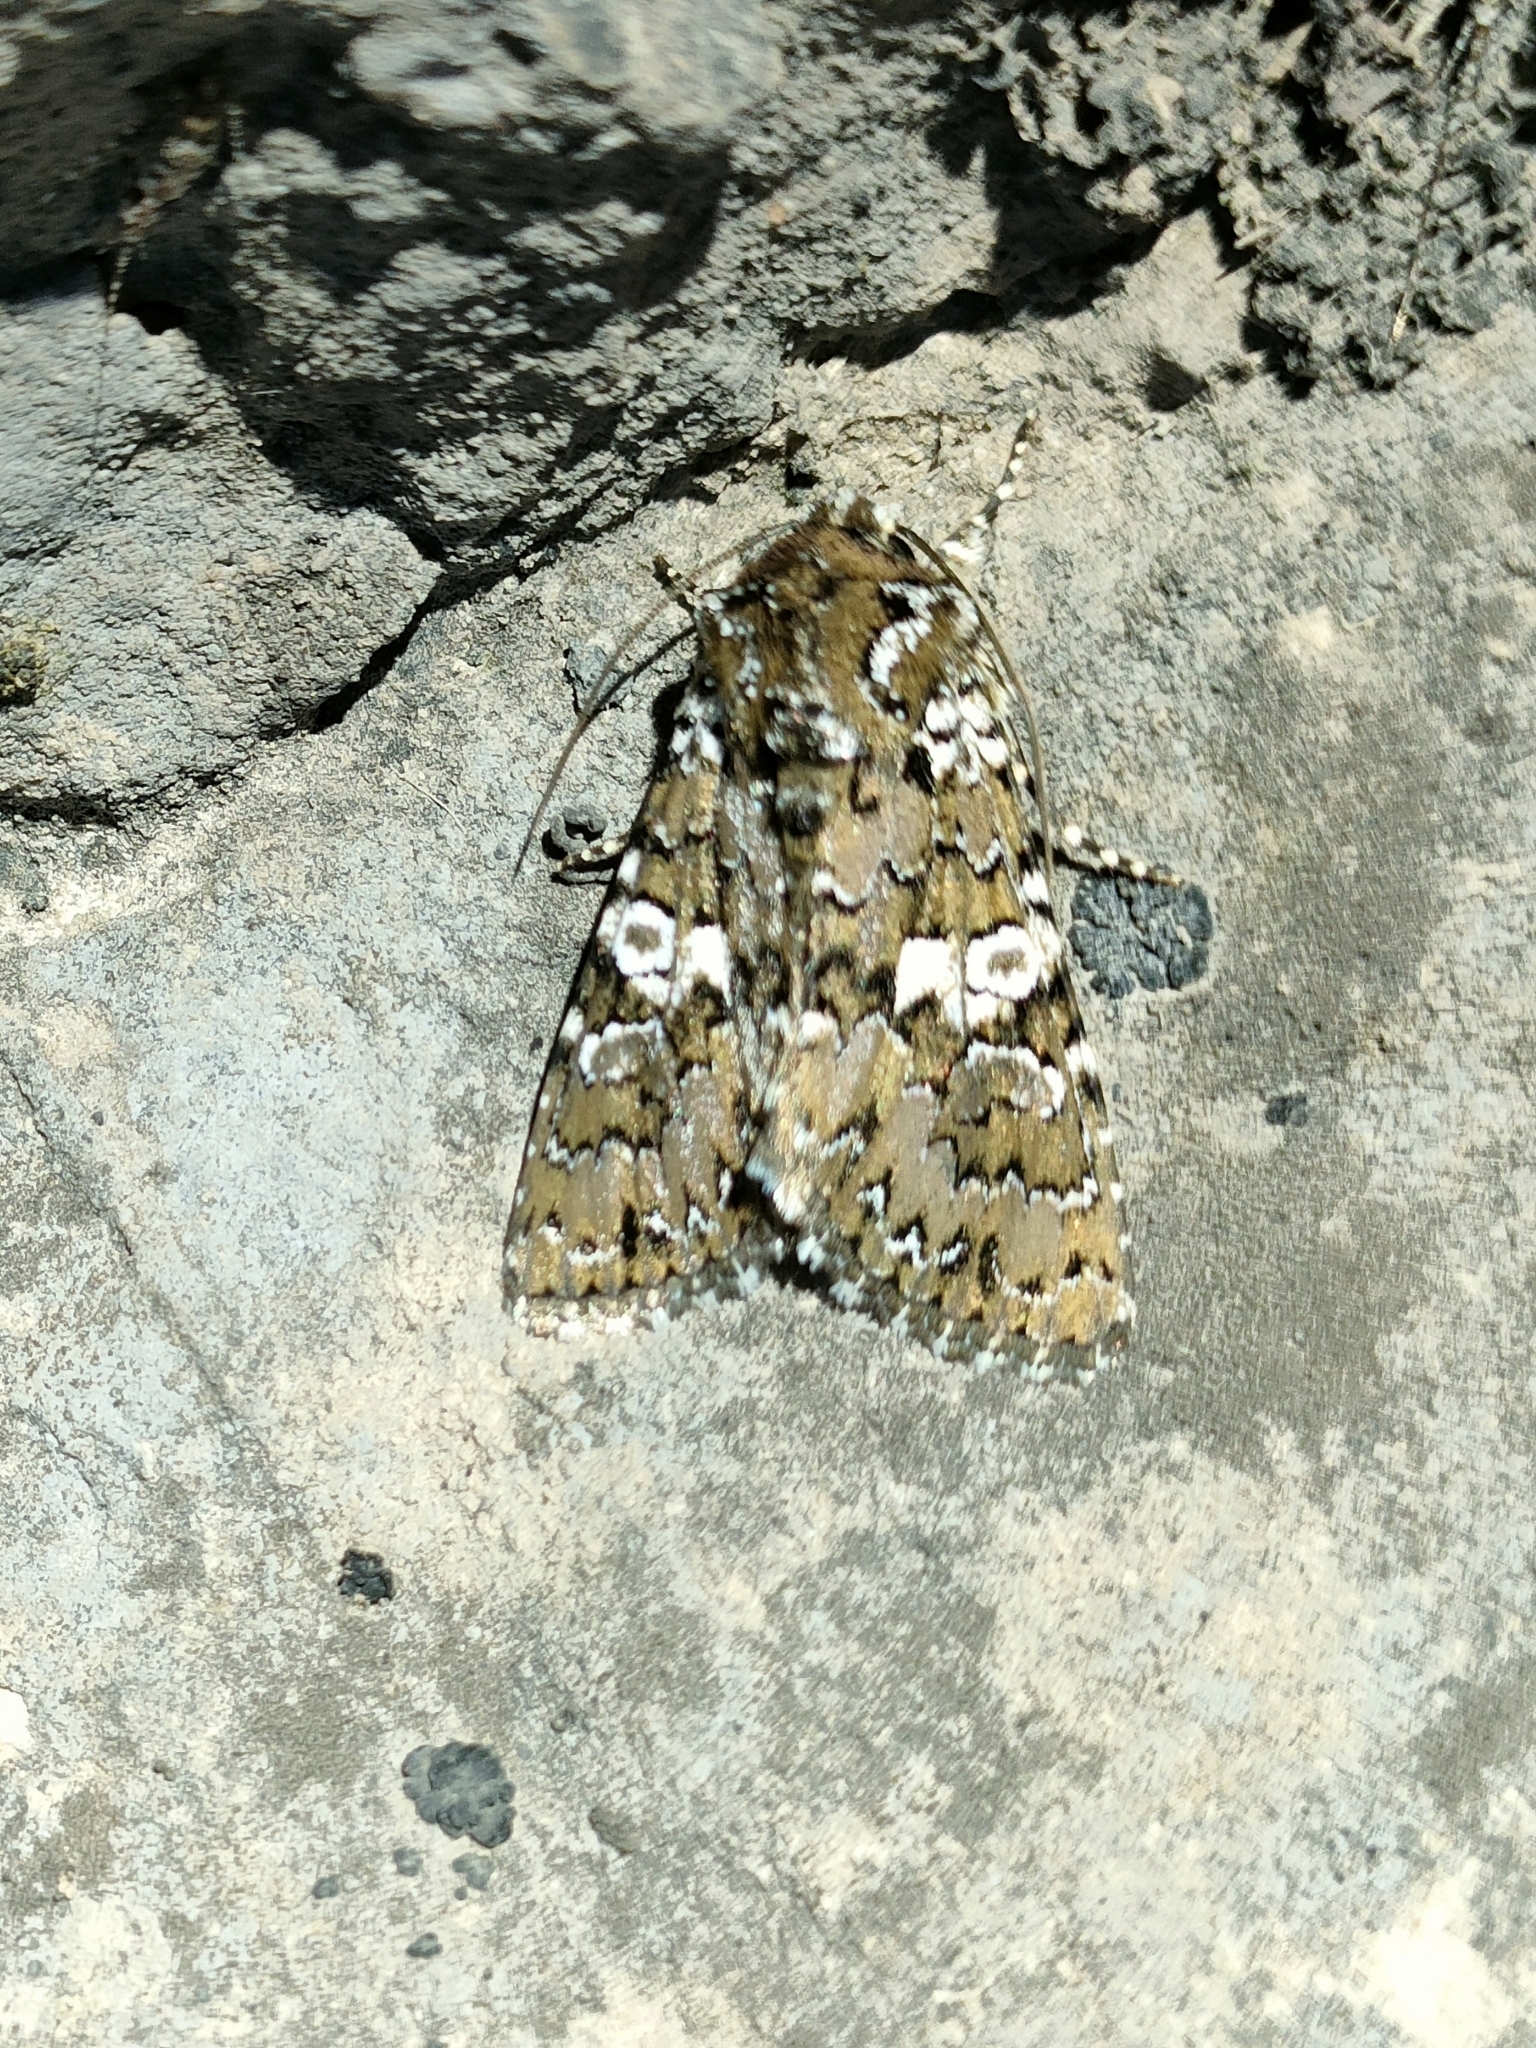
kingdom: Animalia
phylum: Arthropoda
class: Insecta
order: Lepidoptera
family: Noctuidae
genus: Hadena
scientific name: Hadena albimacula
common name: White spot
